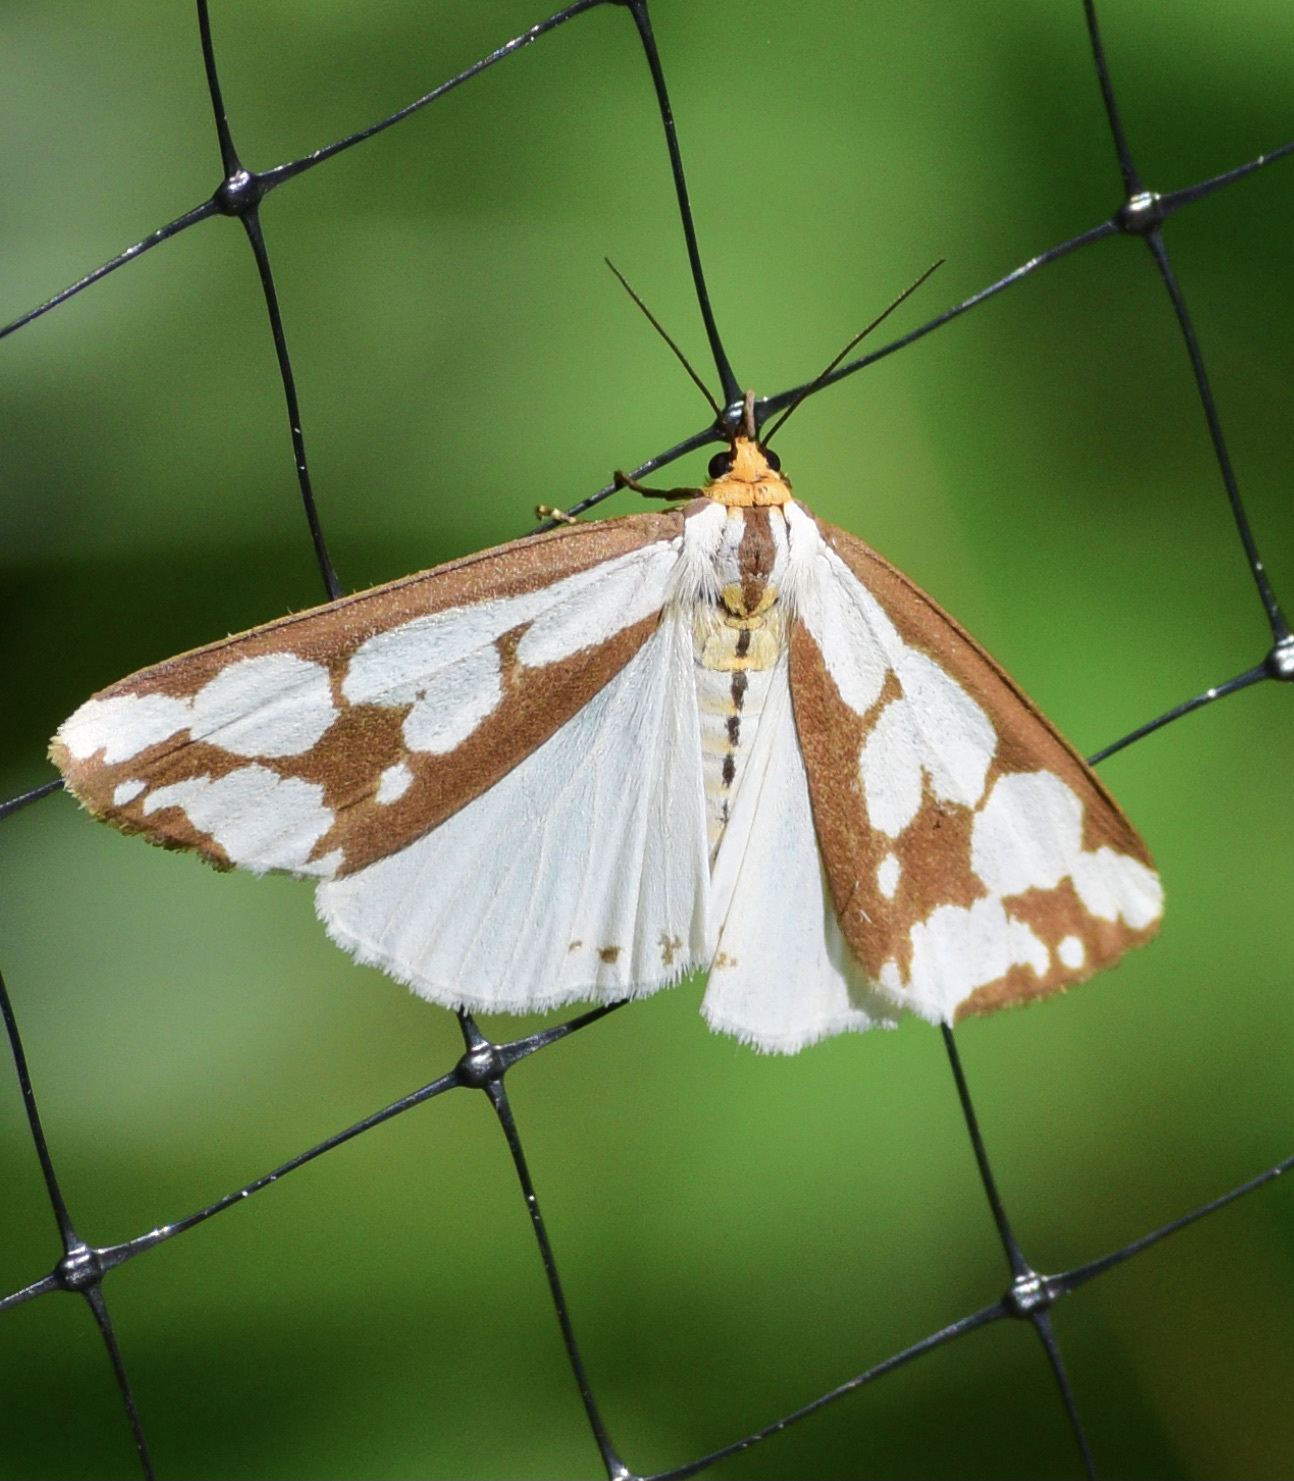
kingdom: Animalia
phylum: Arthropoda
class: Insecta
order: Lepidoptera
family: Erebidae
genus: Haploa
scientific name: Haploa confusa
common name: Confused haploa moth
